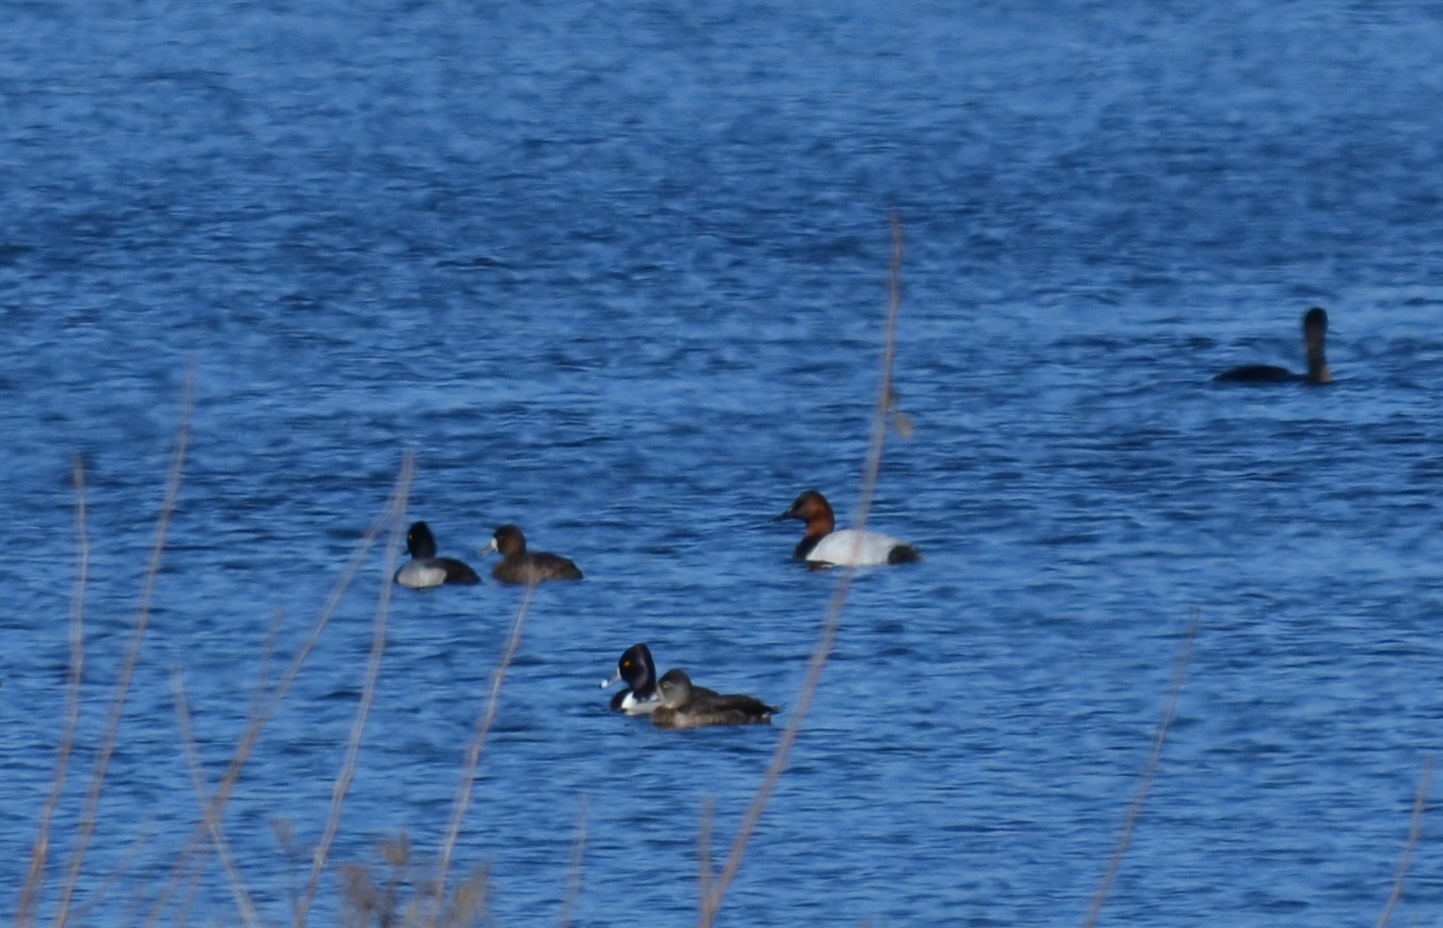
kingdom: Animalia
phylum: Chordata
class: Aves
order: Anseriformes
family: Anatidae
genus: Aythya
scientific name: Aythya valisineria
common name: Canvasback
